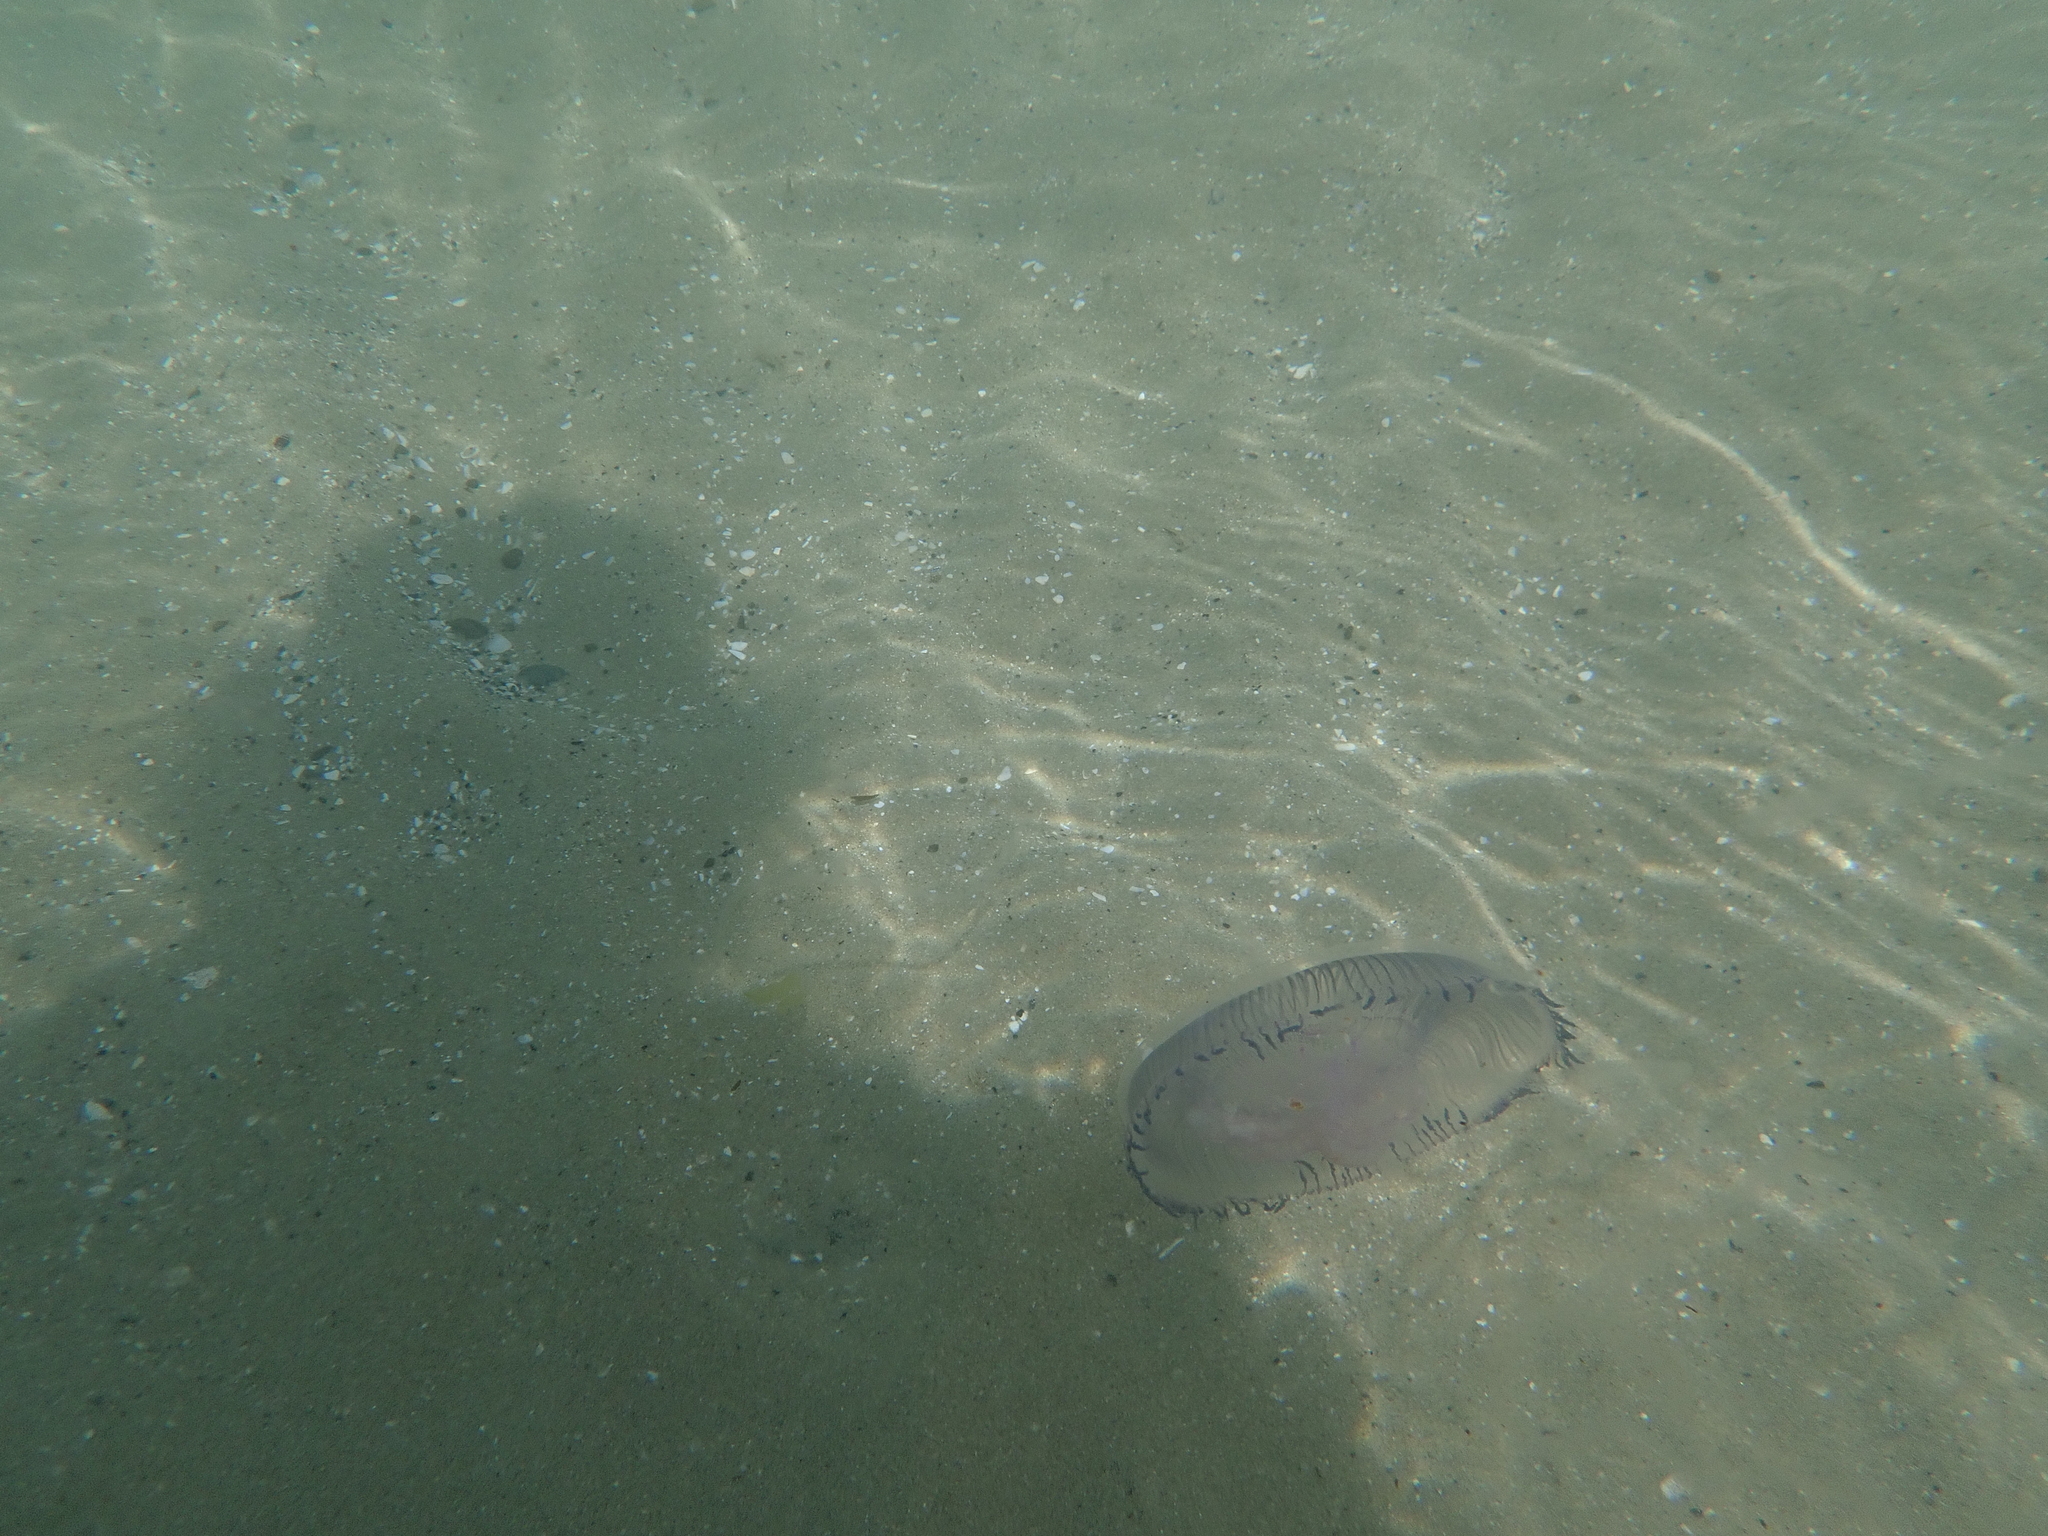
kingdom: Animalia
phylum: Cnidaria
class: Hydrozoa
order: Leptothecata
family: Aequoreidae
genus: Aequorea
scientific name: Aequorea forskalea
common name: Many-ribbed jellyfish
